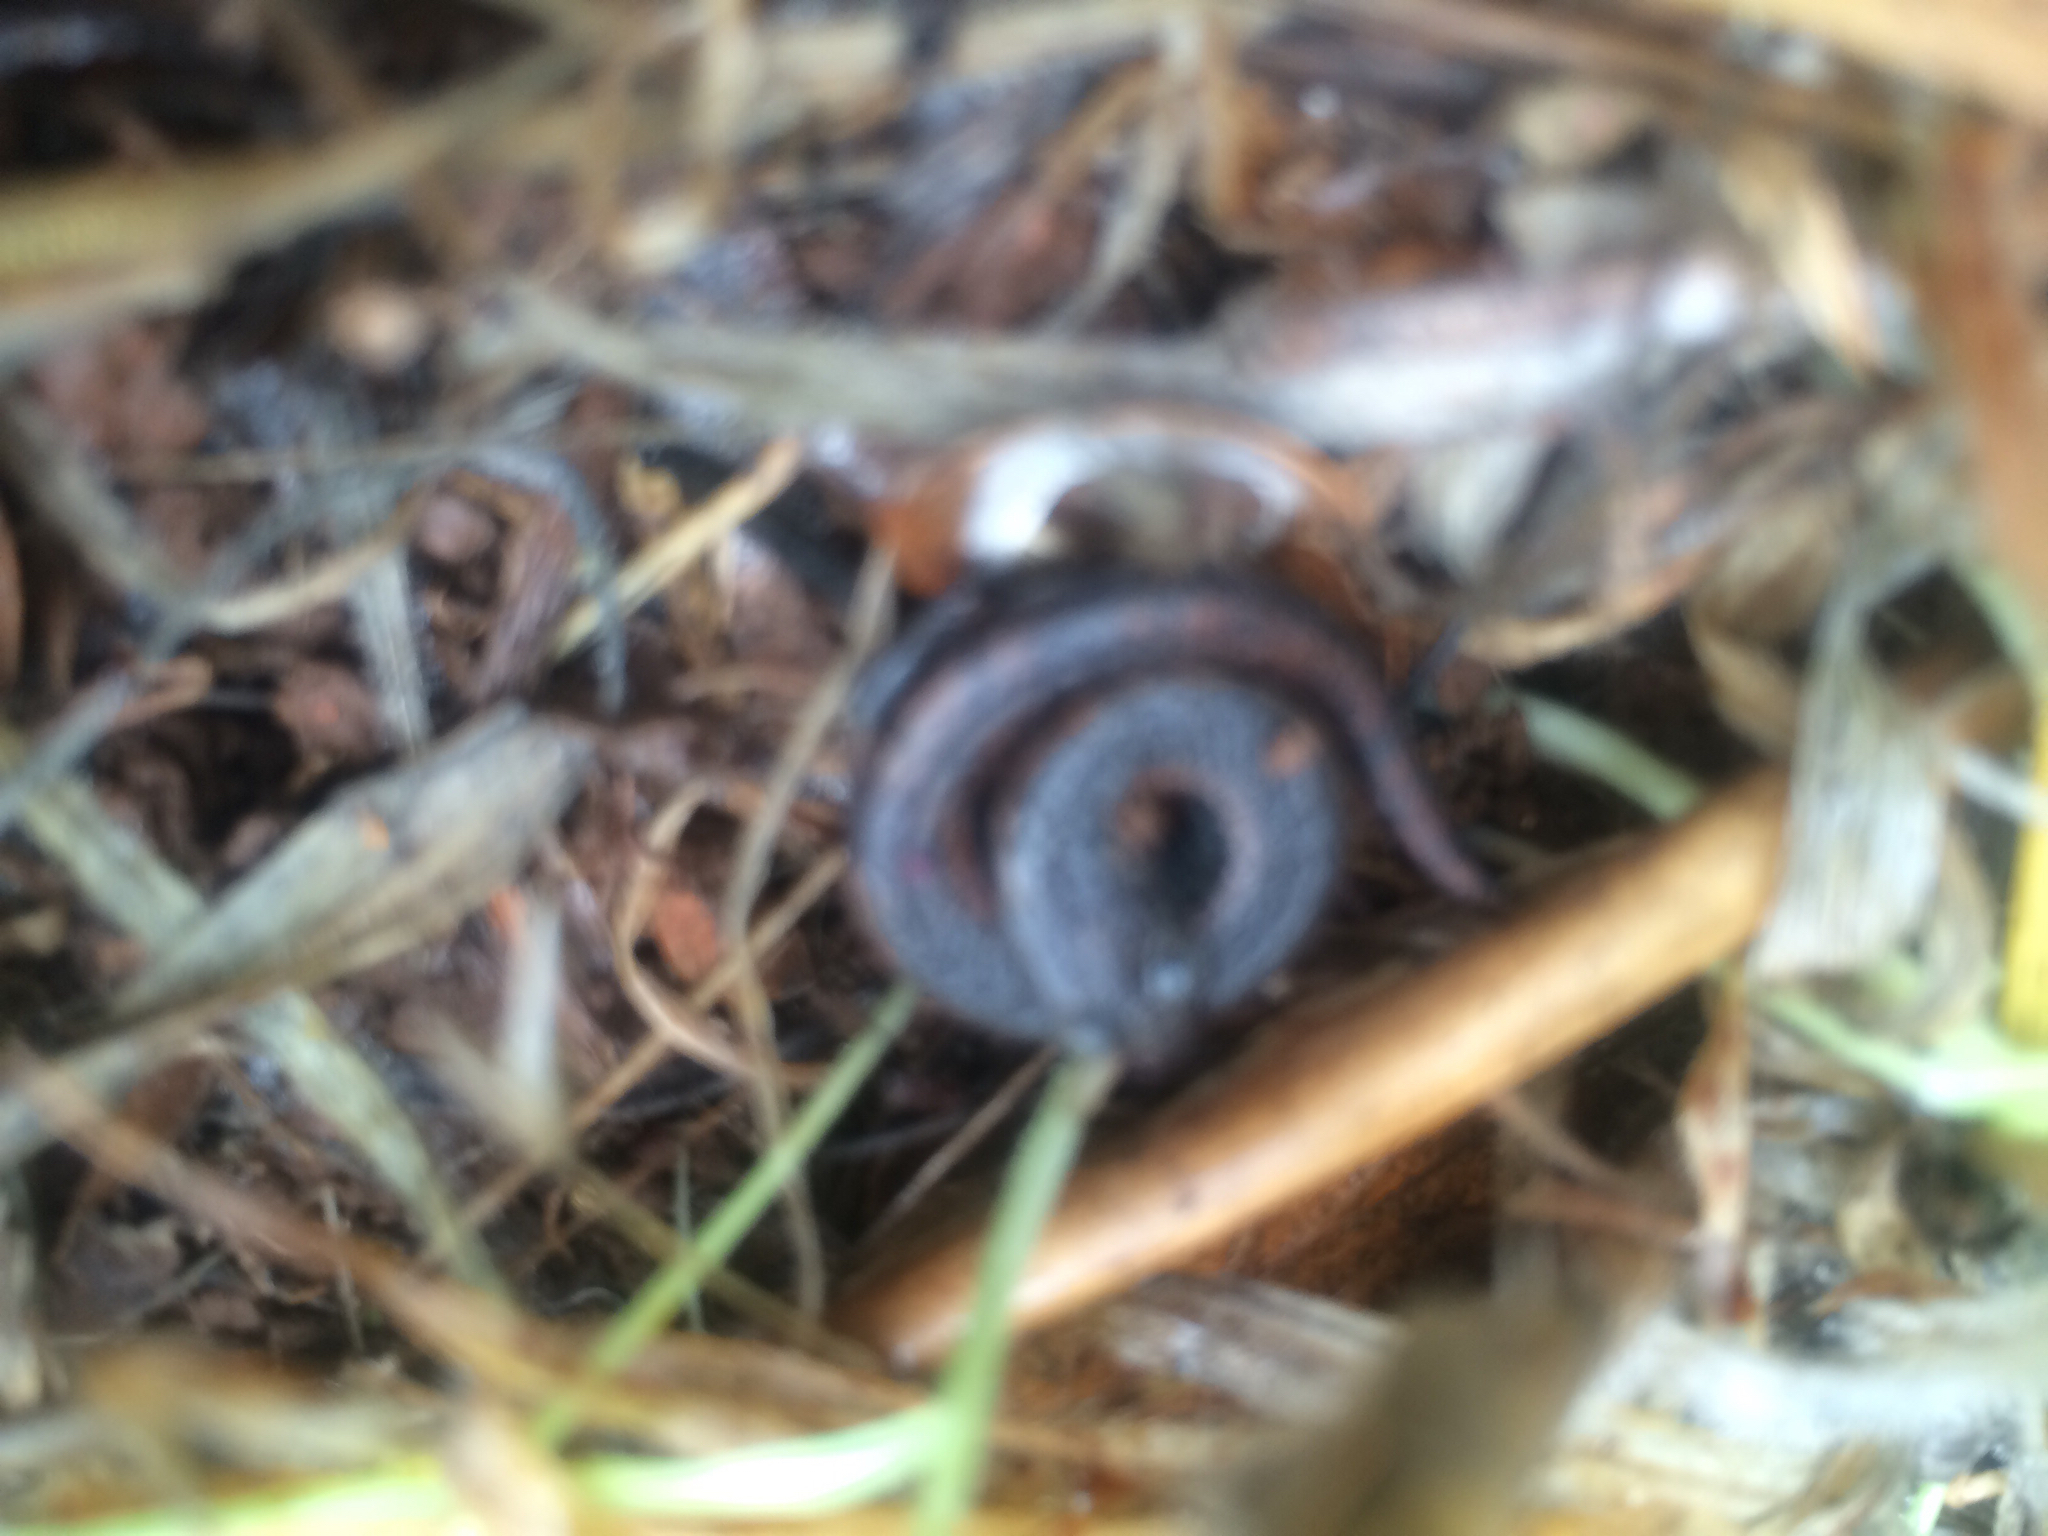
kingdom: Animalia
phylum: Chordata
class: Amphibia
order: Caudata
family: Plethodontidae
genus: Batrachoseps
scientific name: Batrachoseps attenuatus
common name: California slender salamander
